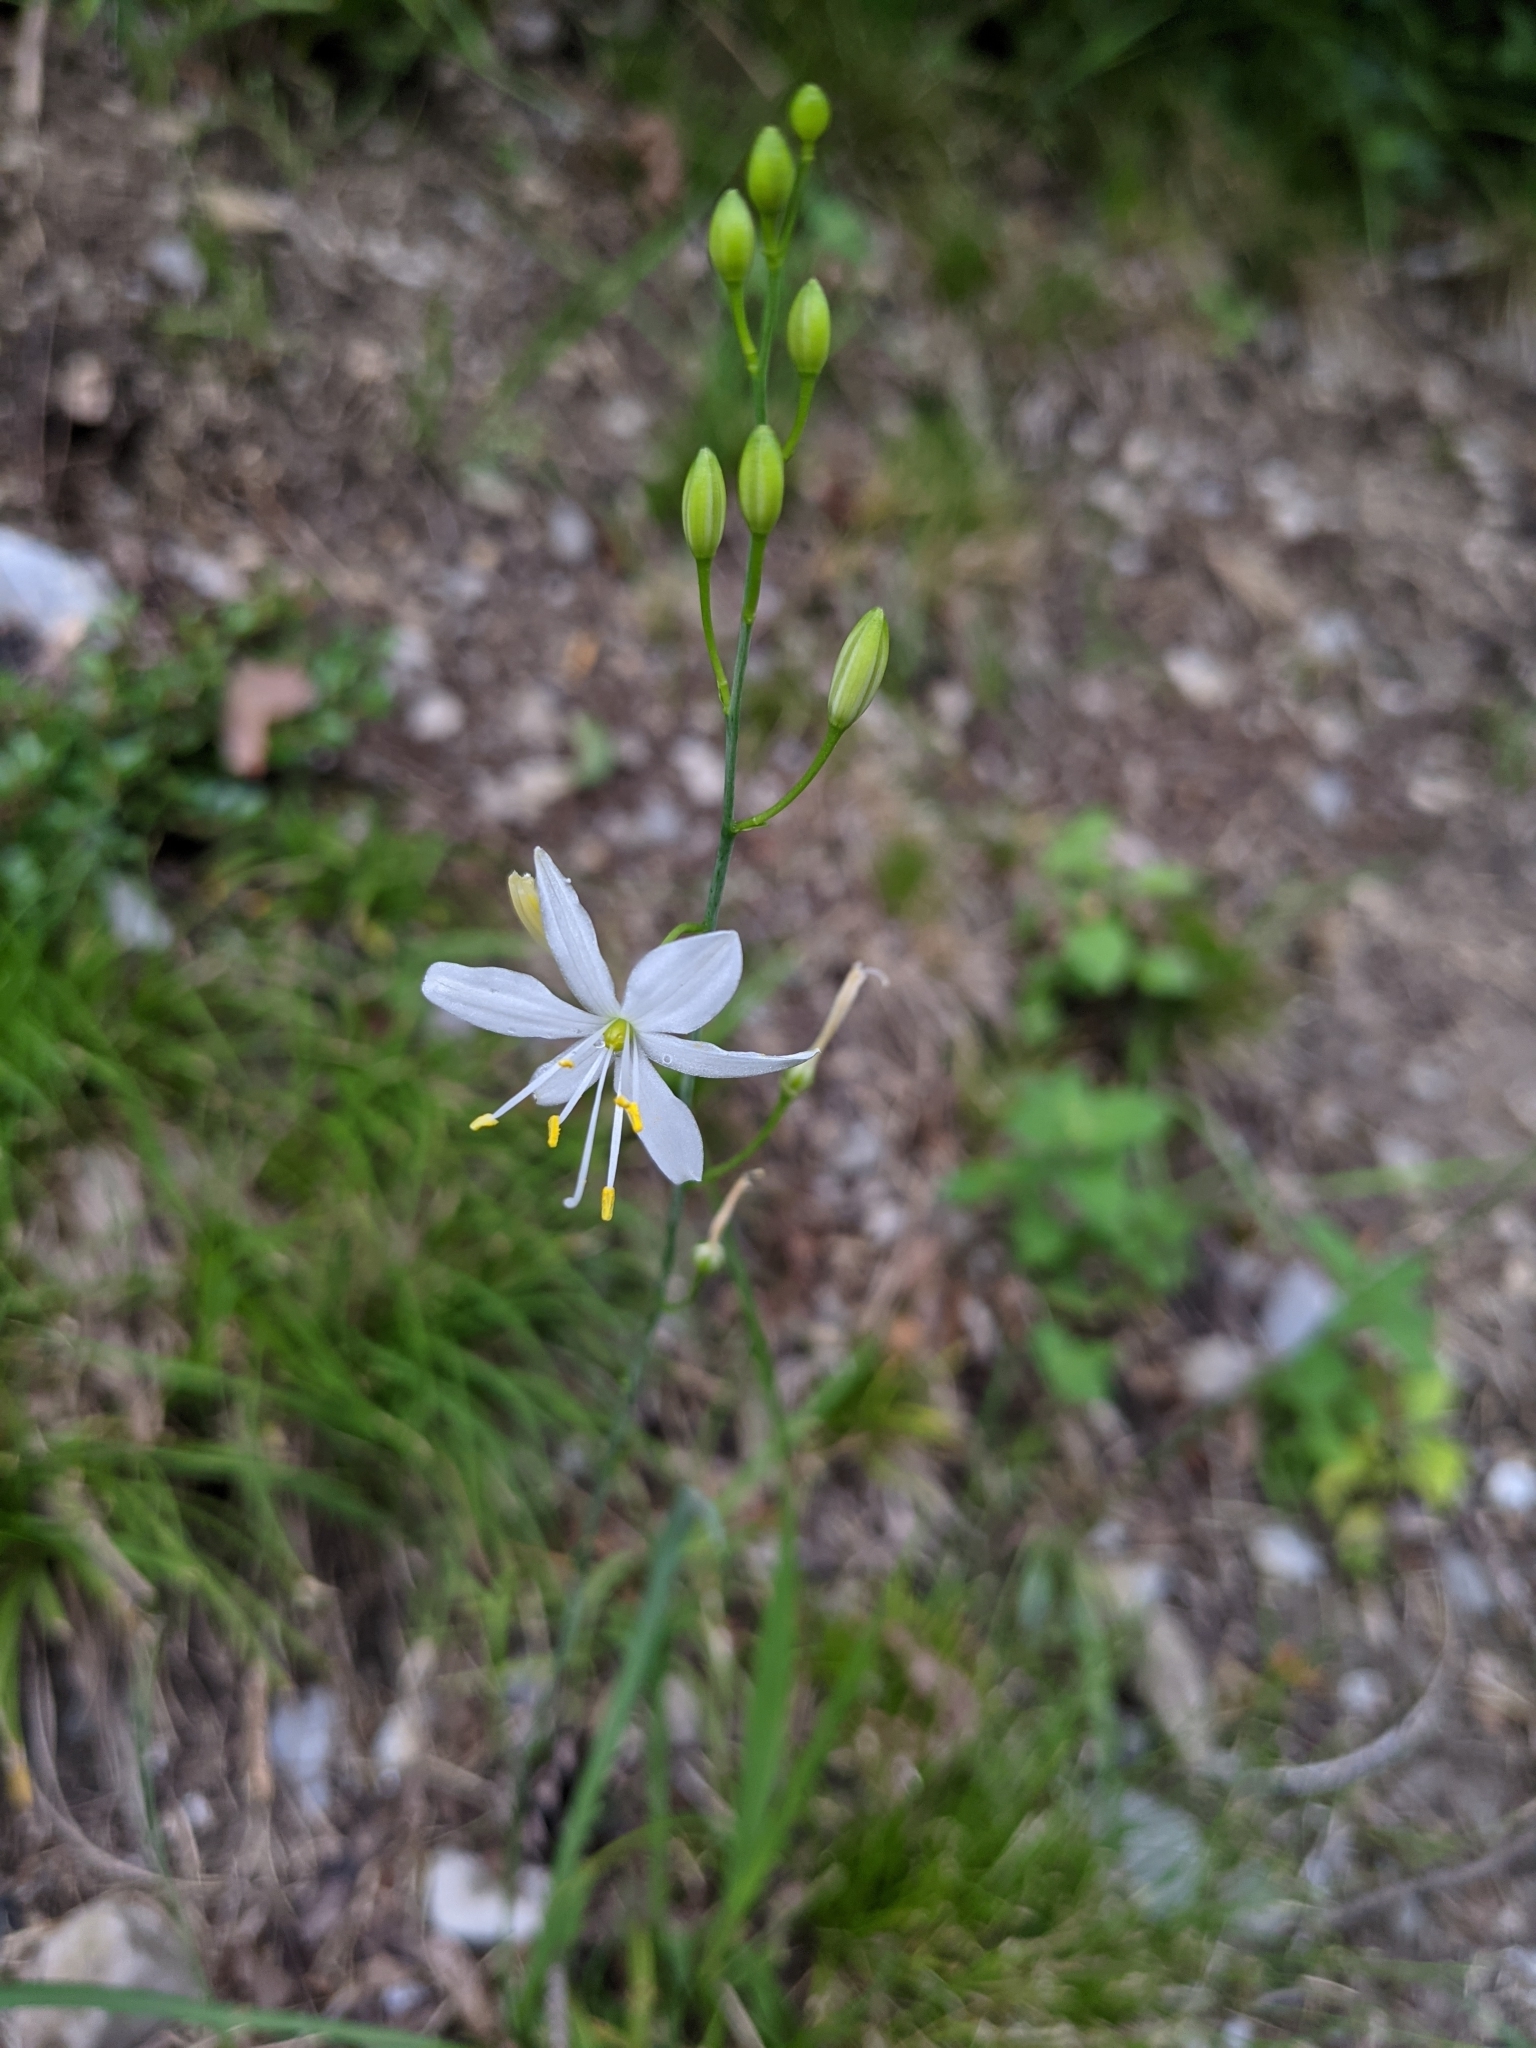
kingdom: Plantae
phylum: Tracheophyta
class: Liliopsida
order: Asparagales
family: Asparagaceae
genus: Anthericum
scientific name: Anthericum liliago
